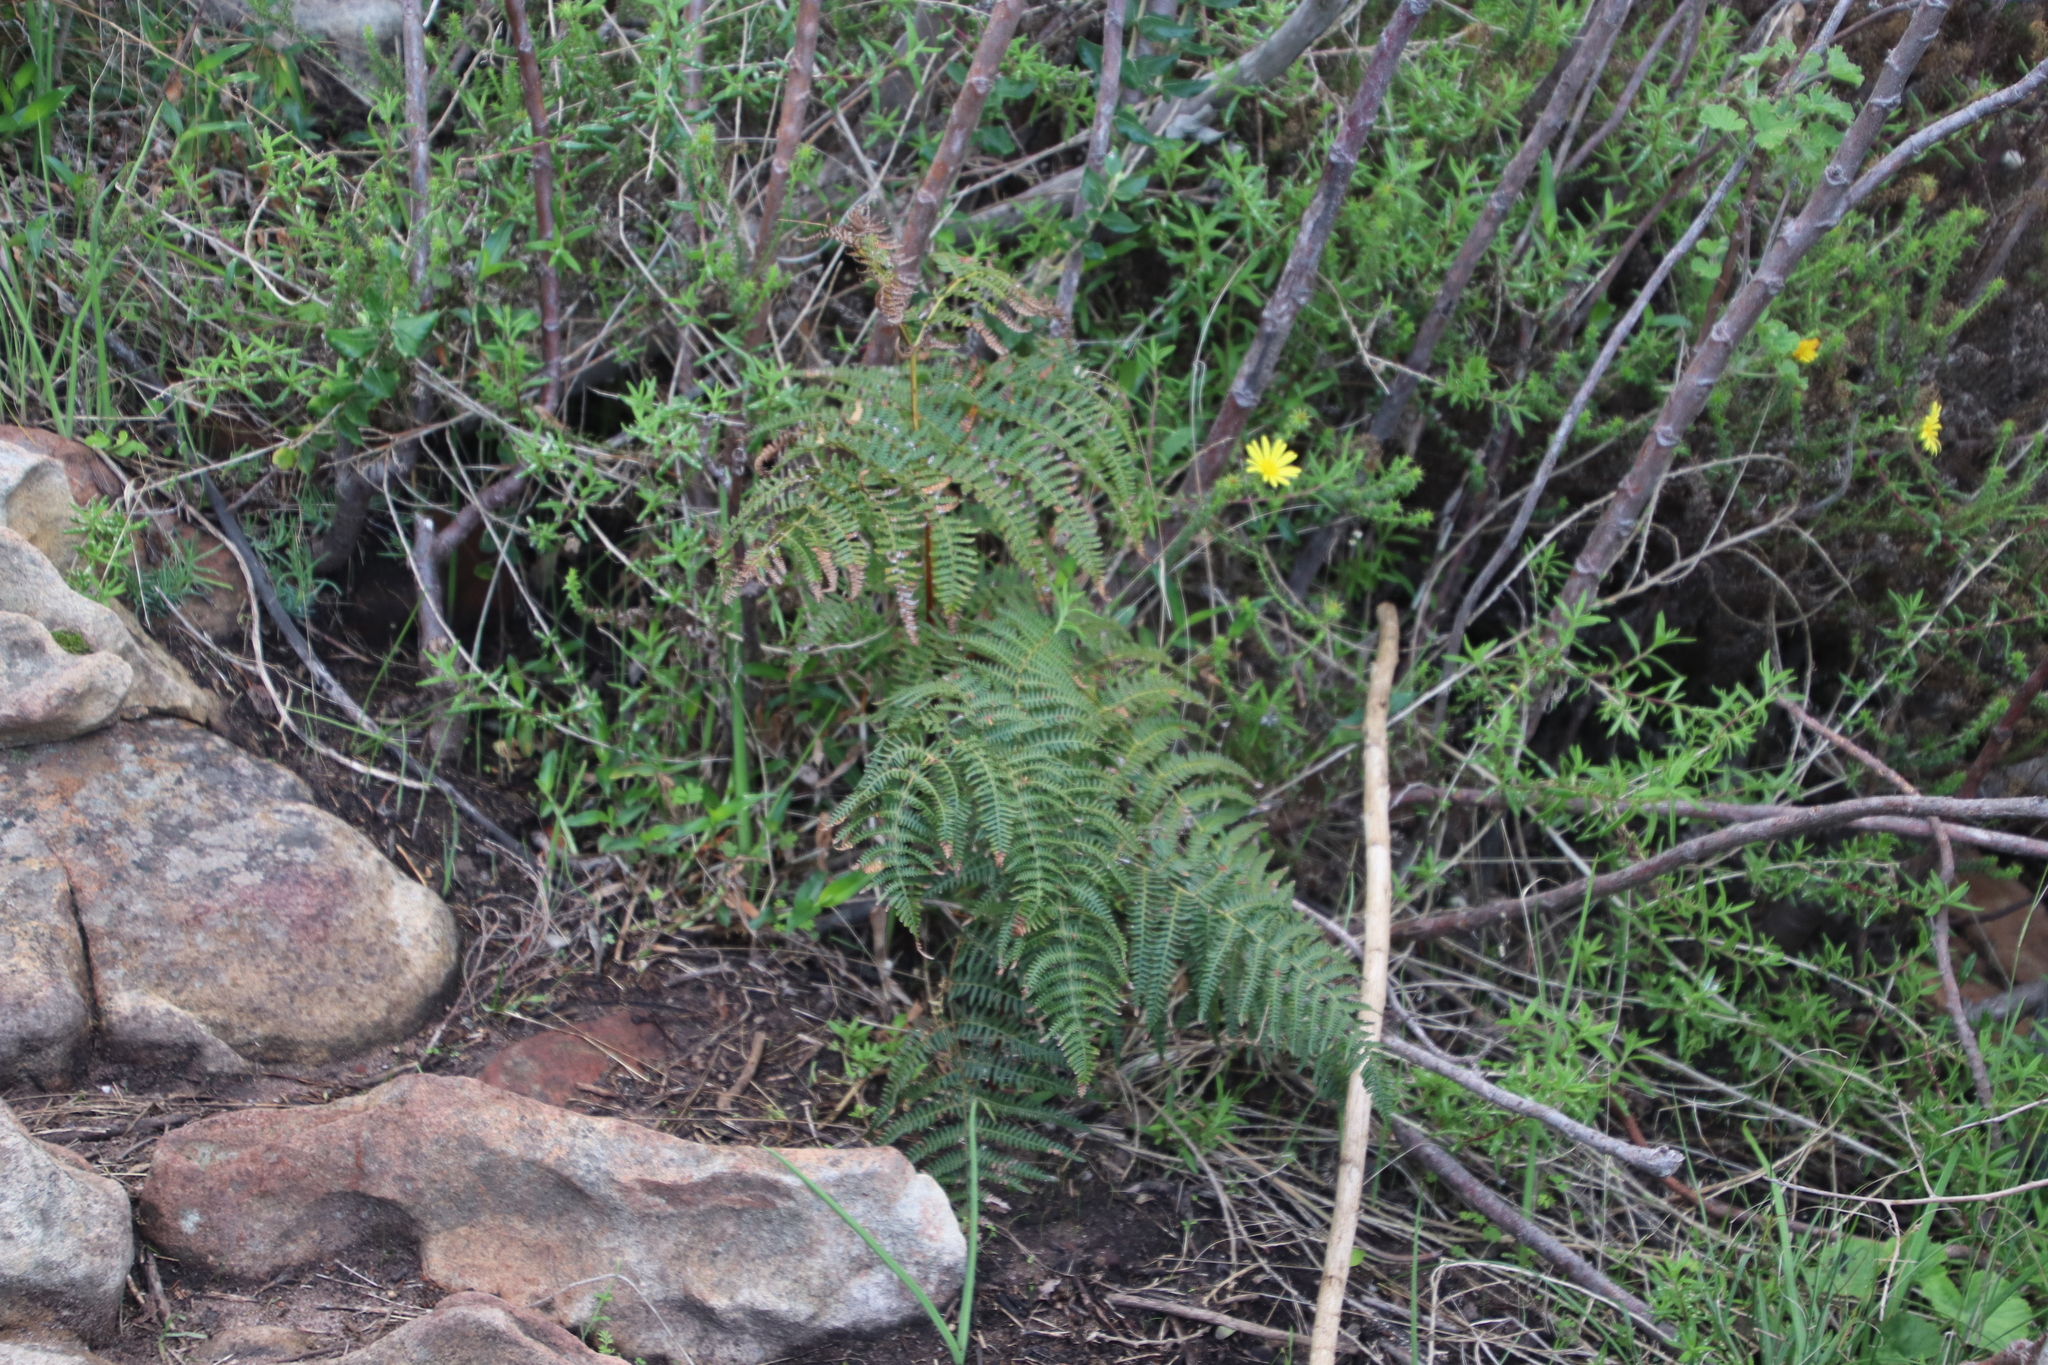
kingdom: Plantae
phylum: Tracheophyta
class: Polypodiopsida
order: Polypodiales
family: Dennstaedtiaceae
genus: Pteridium
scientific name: Pteridium aquilinum
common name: Bracken
